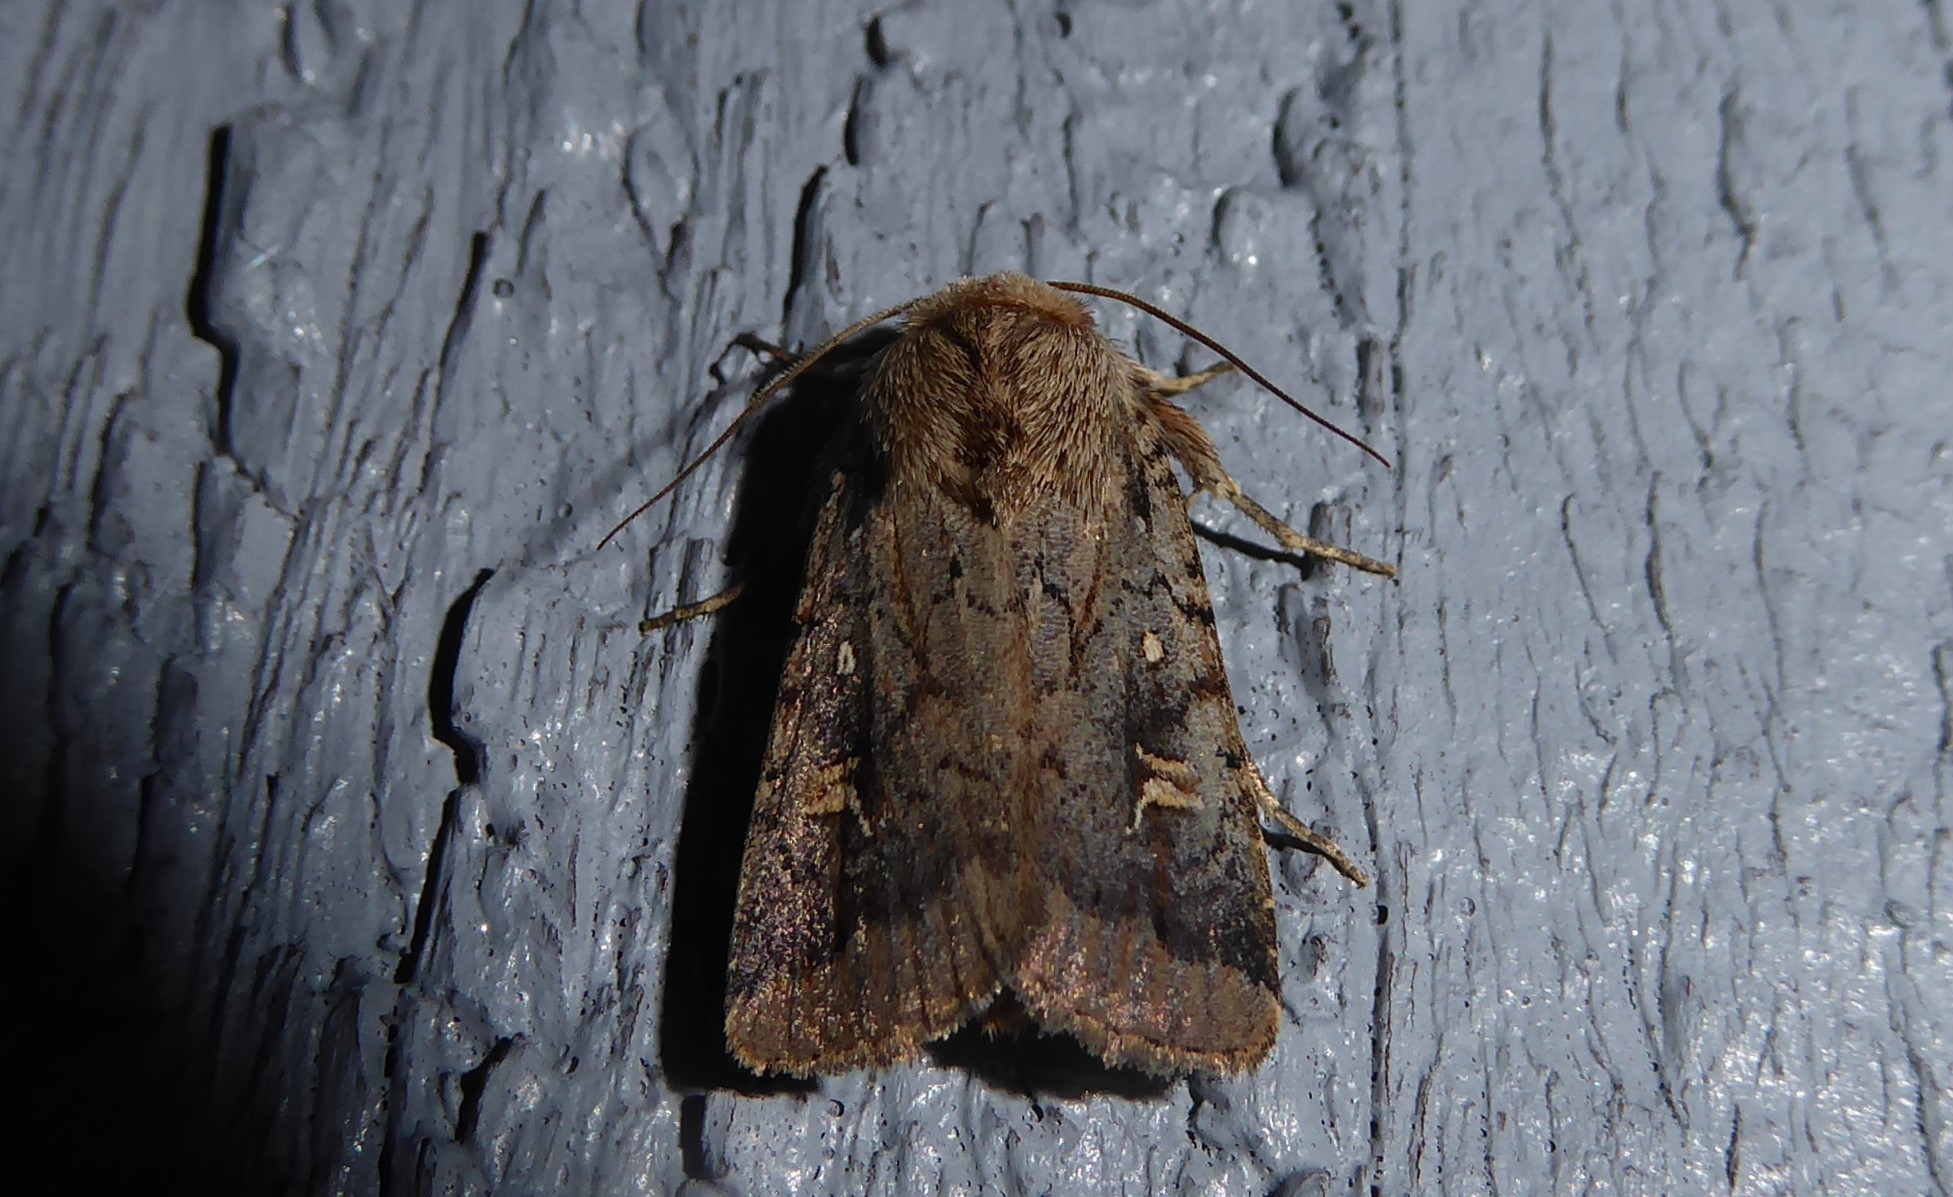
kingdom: Animalia
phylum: Arthropoda
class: Insecta
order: Lepidoptera
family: Noctuidae
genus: Proteuxoa
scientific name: Proteuxoa tetronycha
